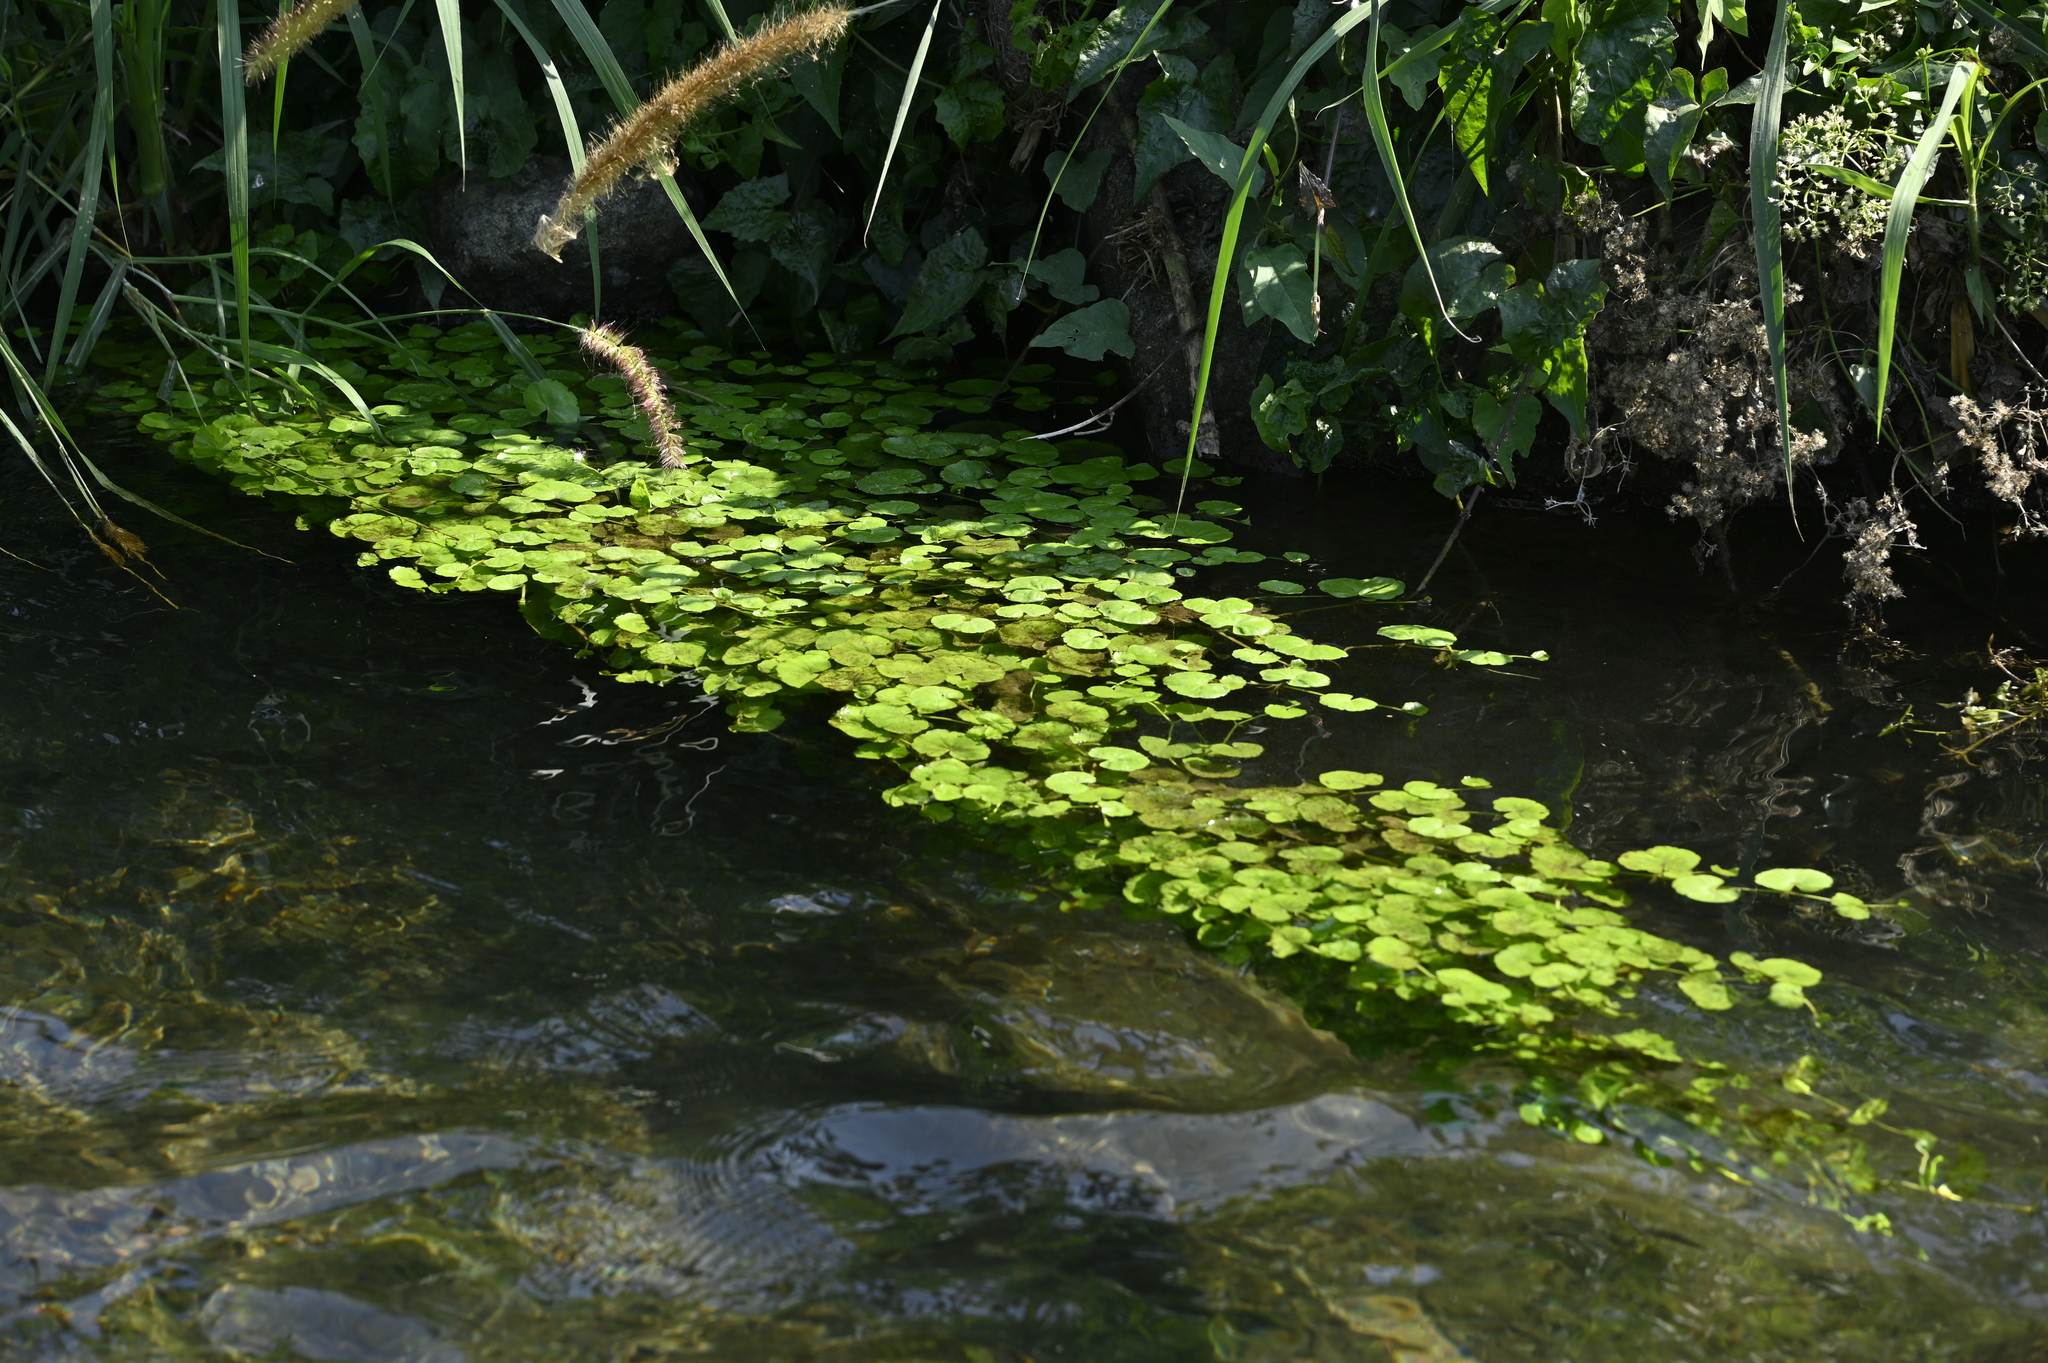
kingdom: Plantae
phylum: Tracheophyta
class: Magnoliopsida
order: Apiales
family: Araliaceae
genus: Hydrocotyle
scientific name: Hydrocotyle leucocephala
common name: Brazilian pennywort
